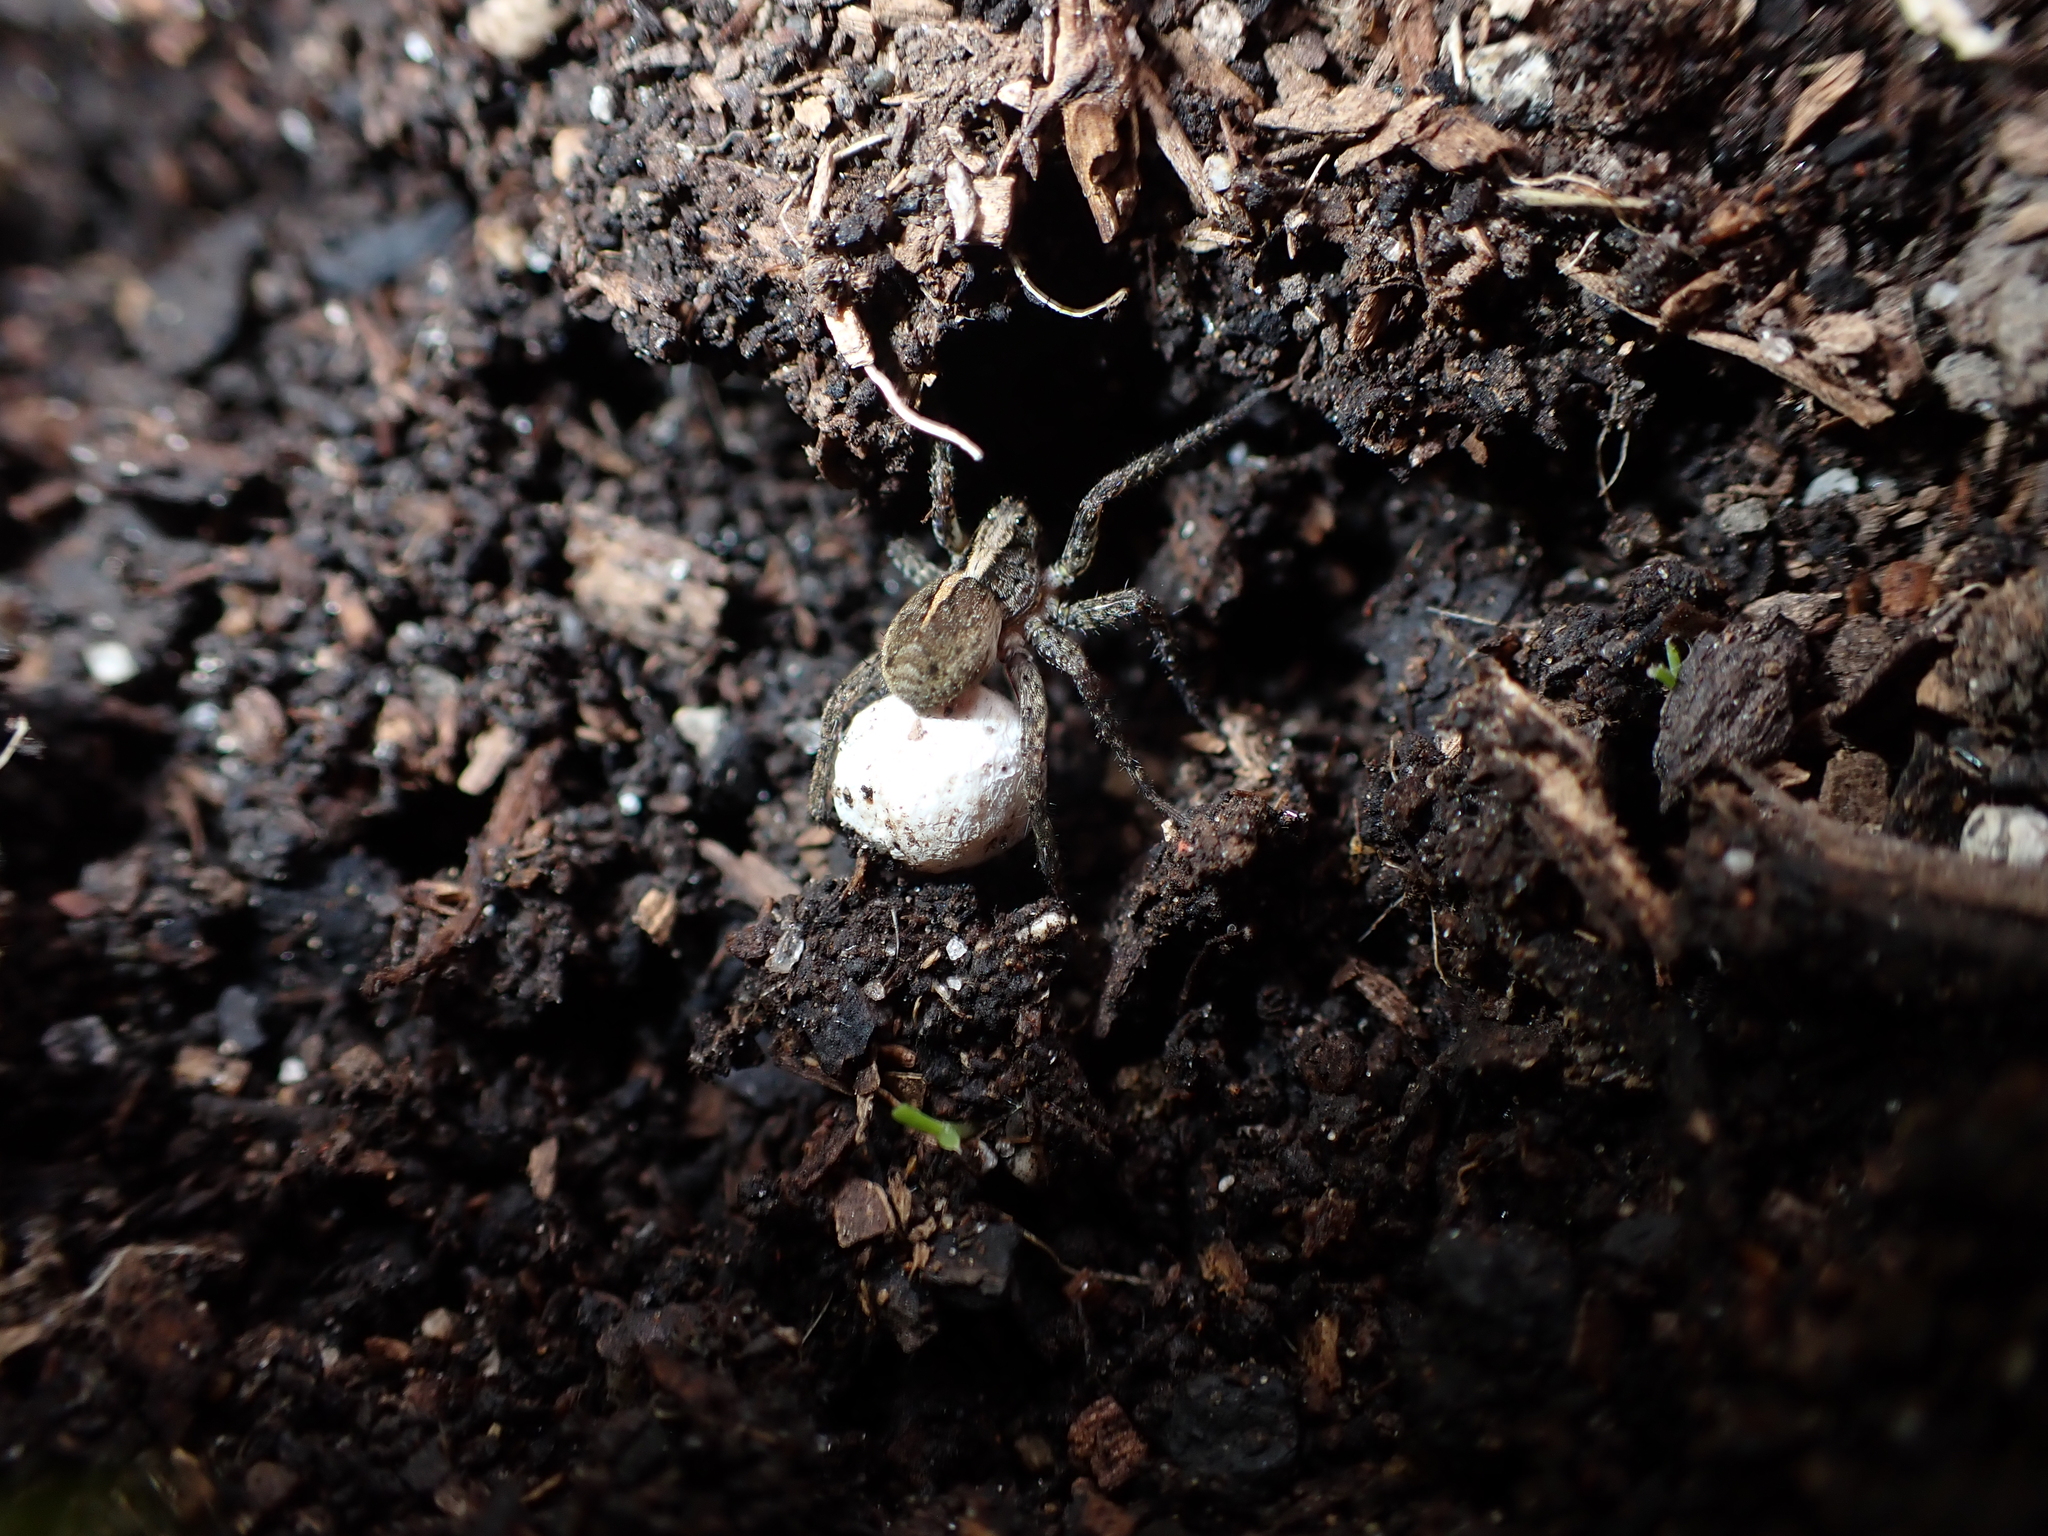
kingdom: Animalia
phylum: Arthropoda
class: Arachnida
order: Araneae
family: Lycosidae
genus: Anoteropsis
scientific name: Anoteropsis hilaris
